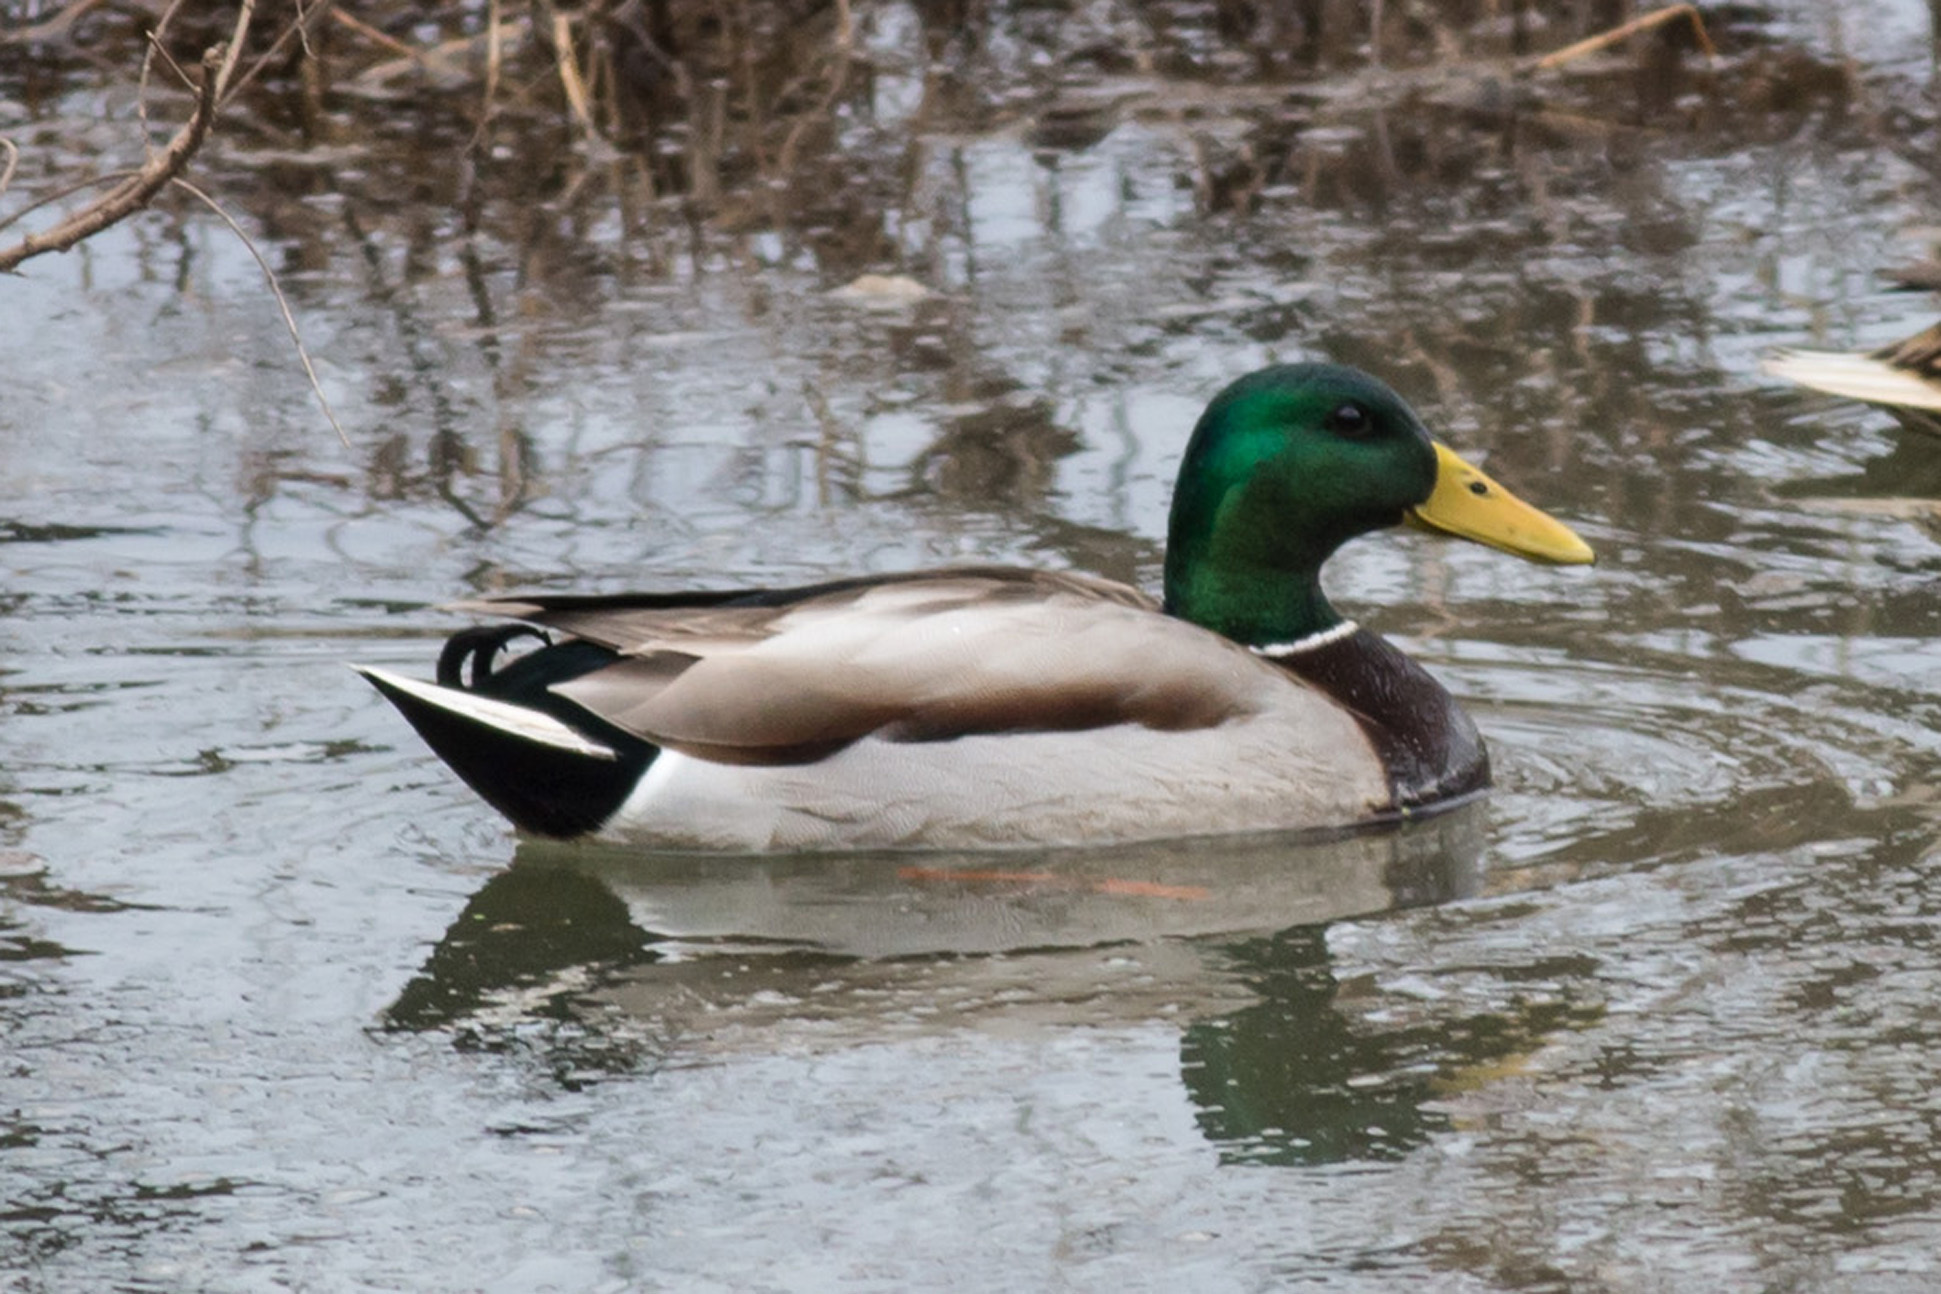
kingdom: Animalia
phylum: Chordata
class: Aves
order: Anseriformes
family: Anatidae
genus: Anas
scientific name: Anas platyrhynchos
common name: Mallard
